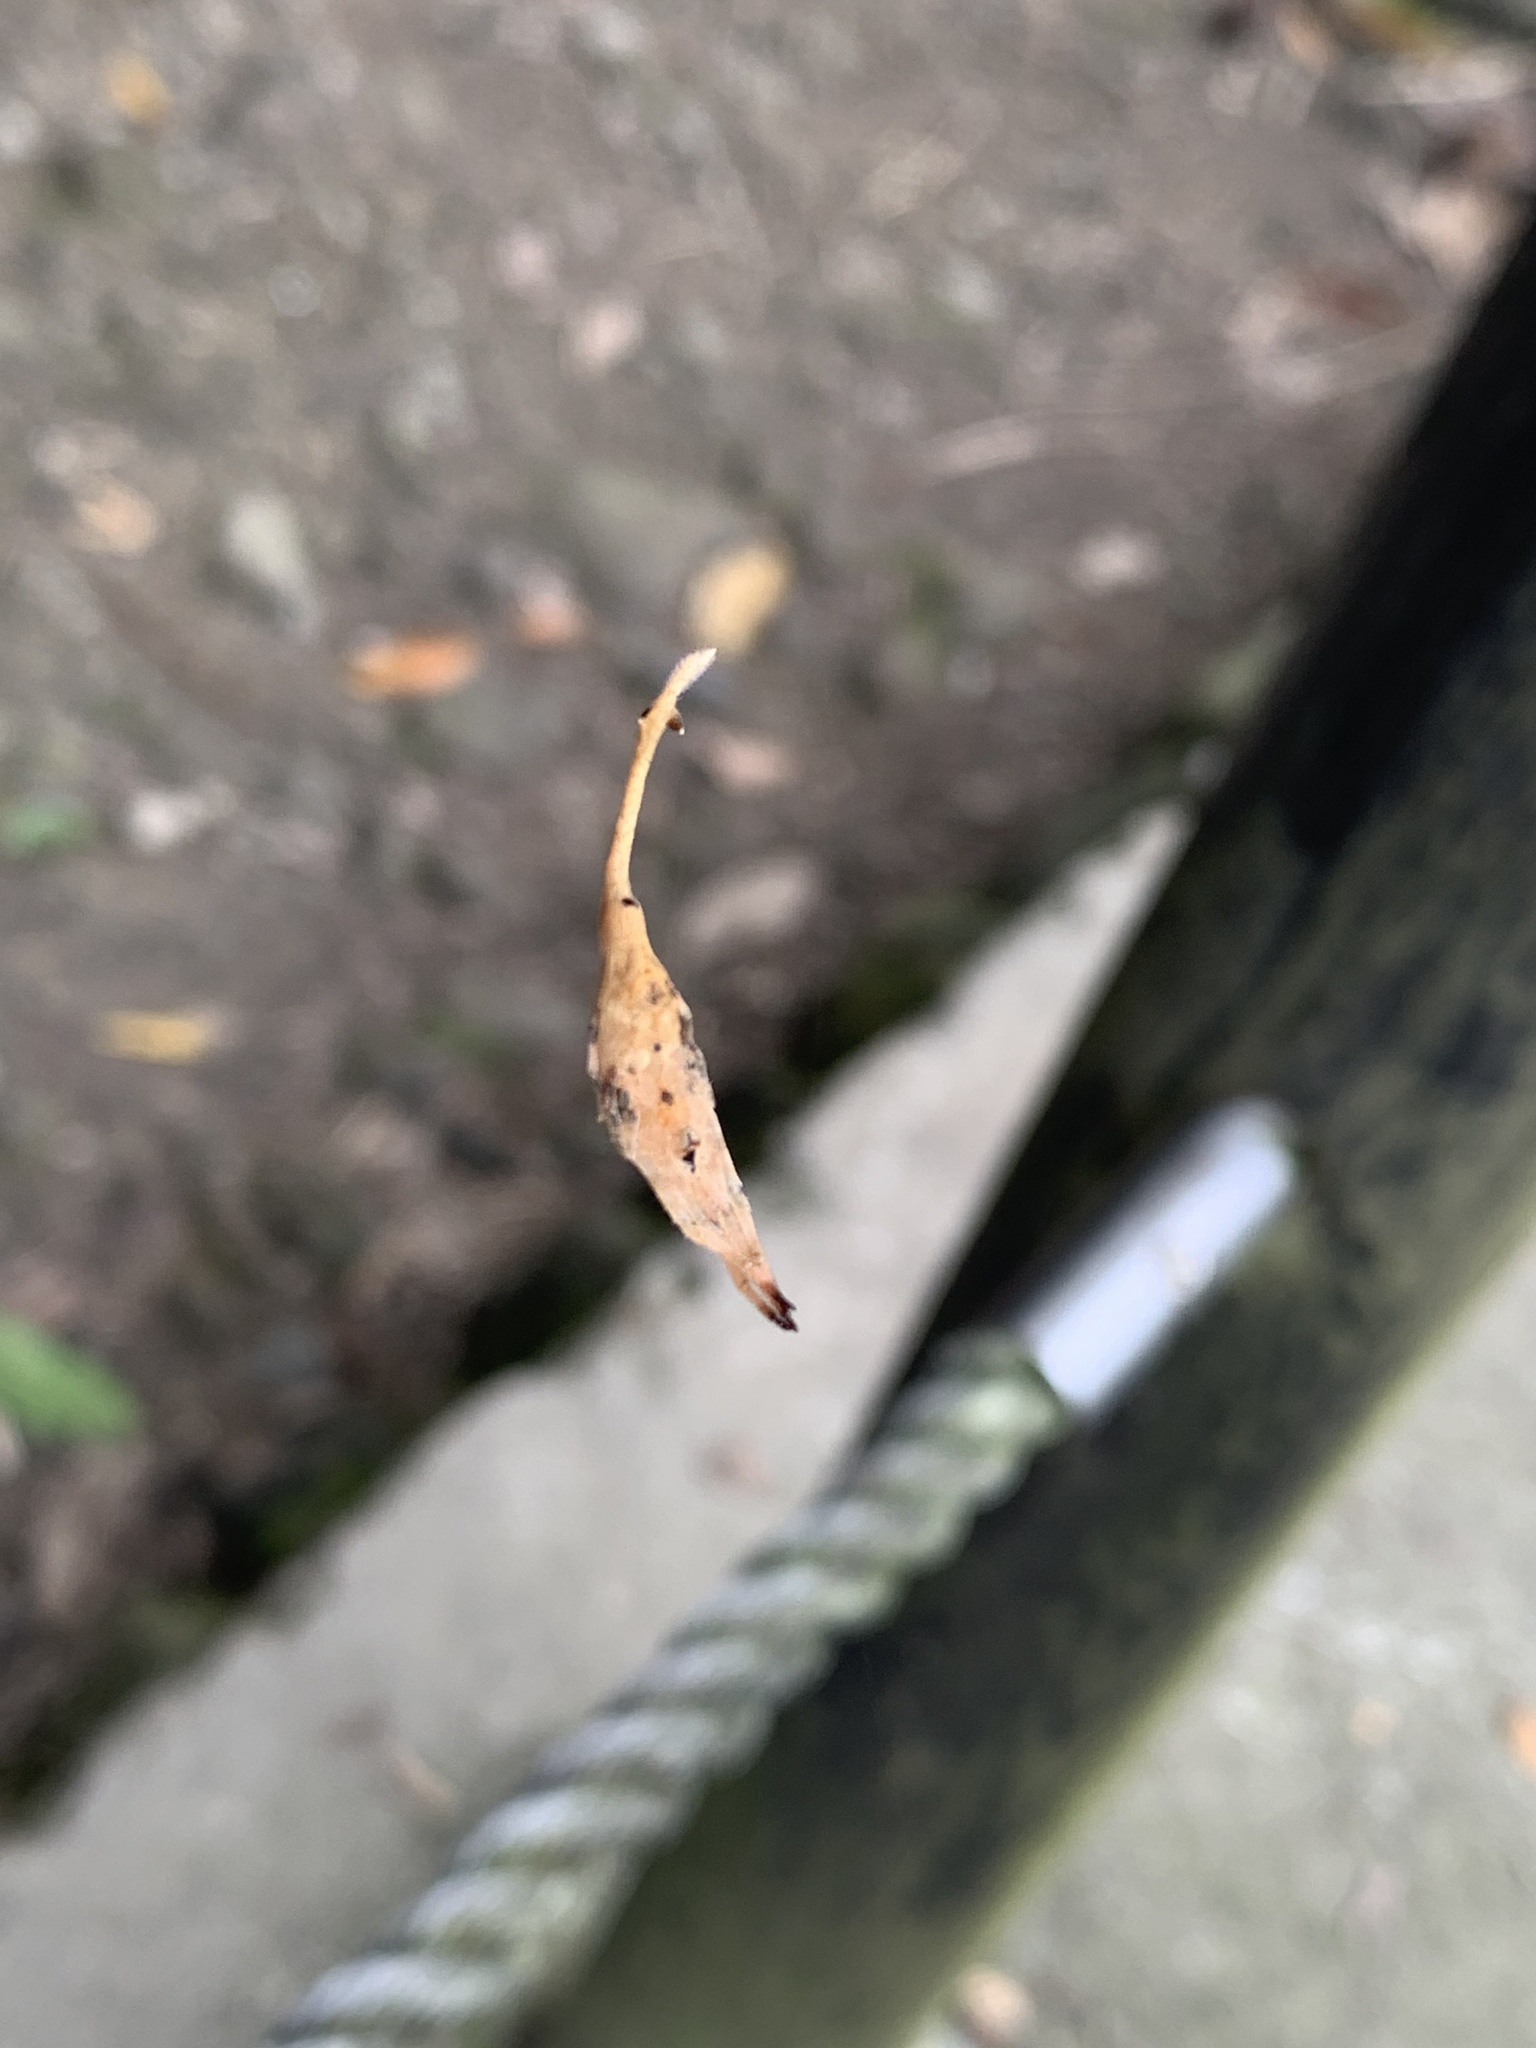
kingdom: Animalia
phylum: Arthropoda
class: Arachnida
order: Araneae
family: Araneidae
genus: Arachnura
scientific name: Arachnura melanura
